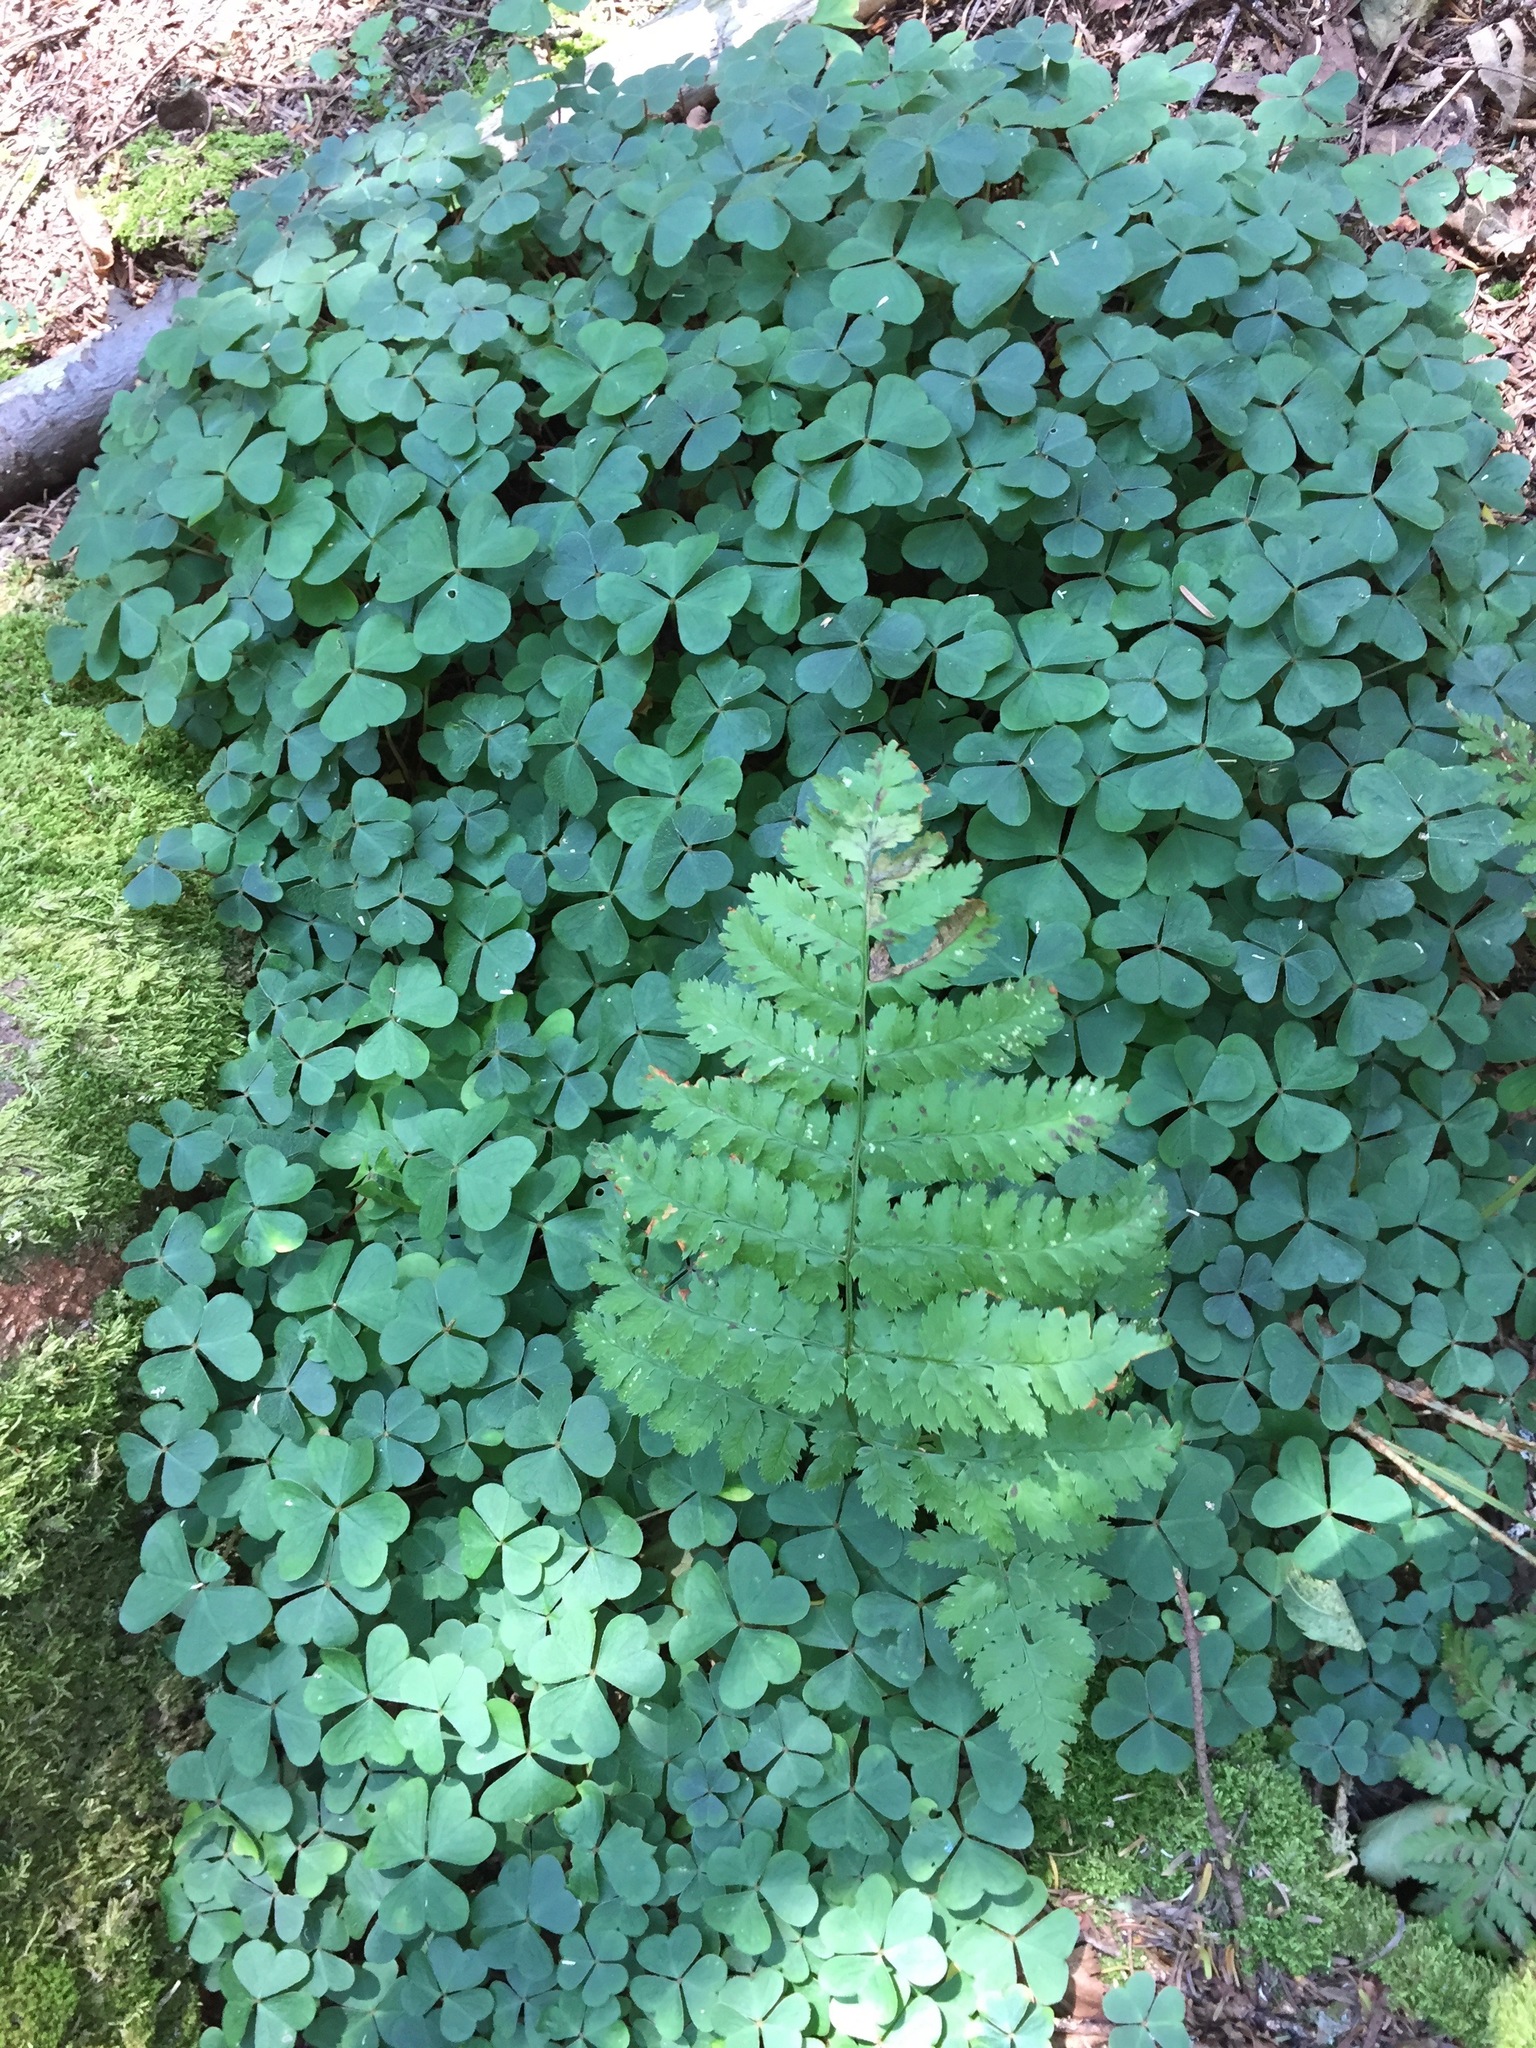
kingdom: Plantae
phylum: Tracheophyta
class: Magnoliopsida
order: Oxalidales
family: Oxalidaceae
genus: Oxalis
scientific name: Oxalis montana
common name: American wood-sorrel
